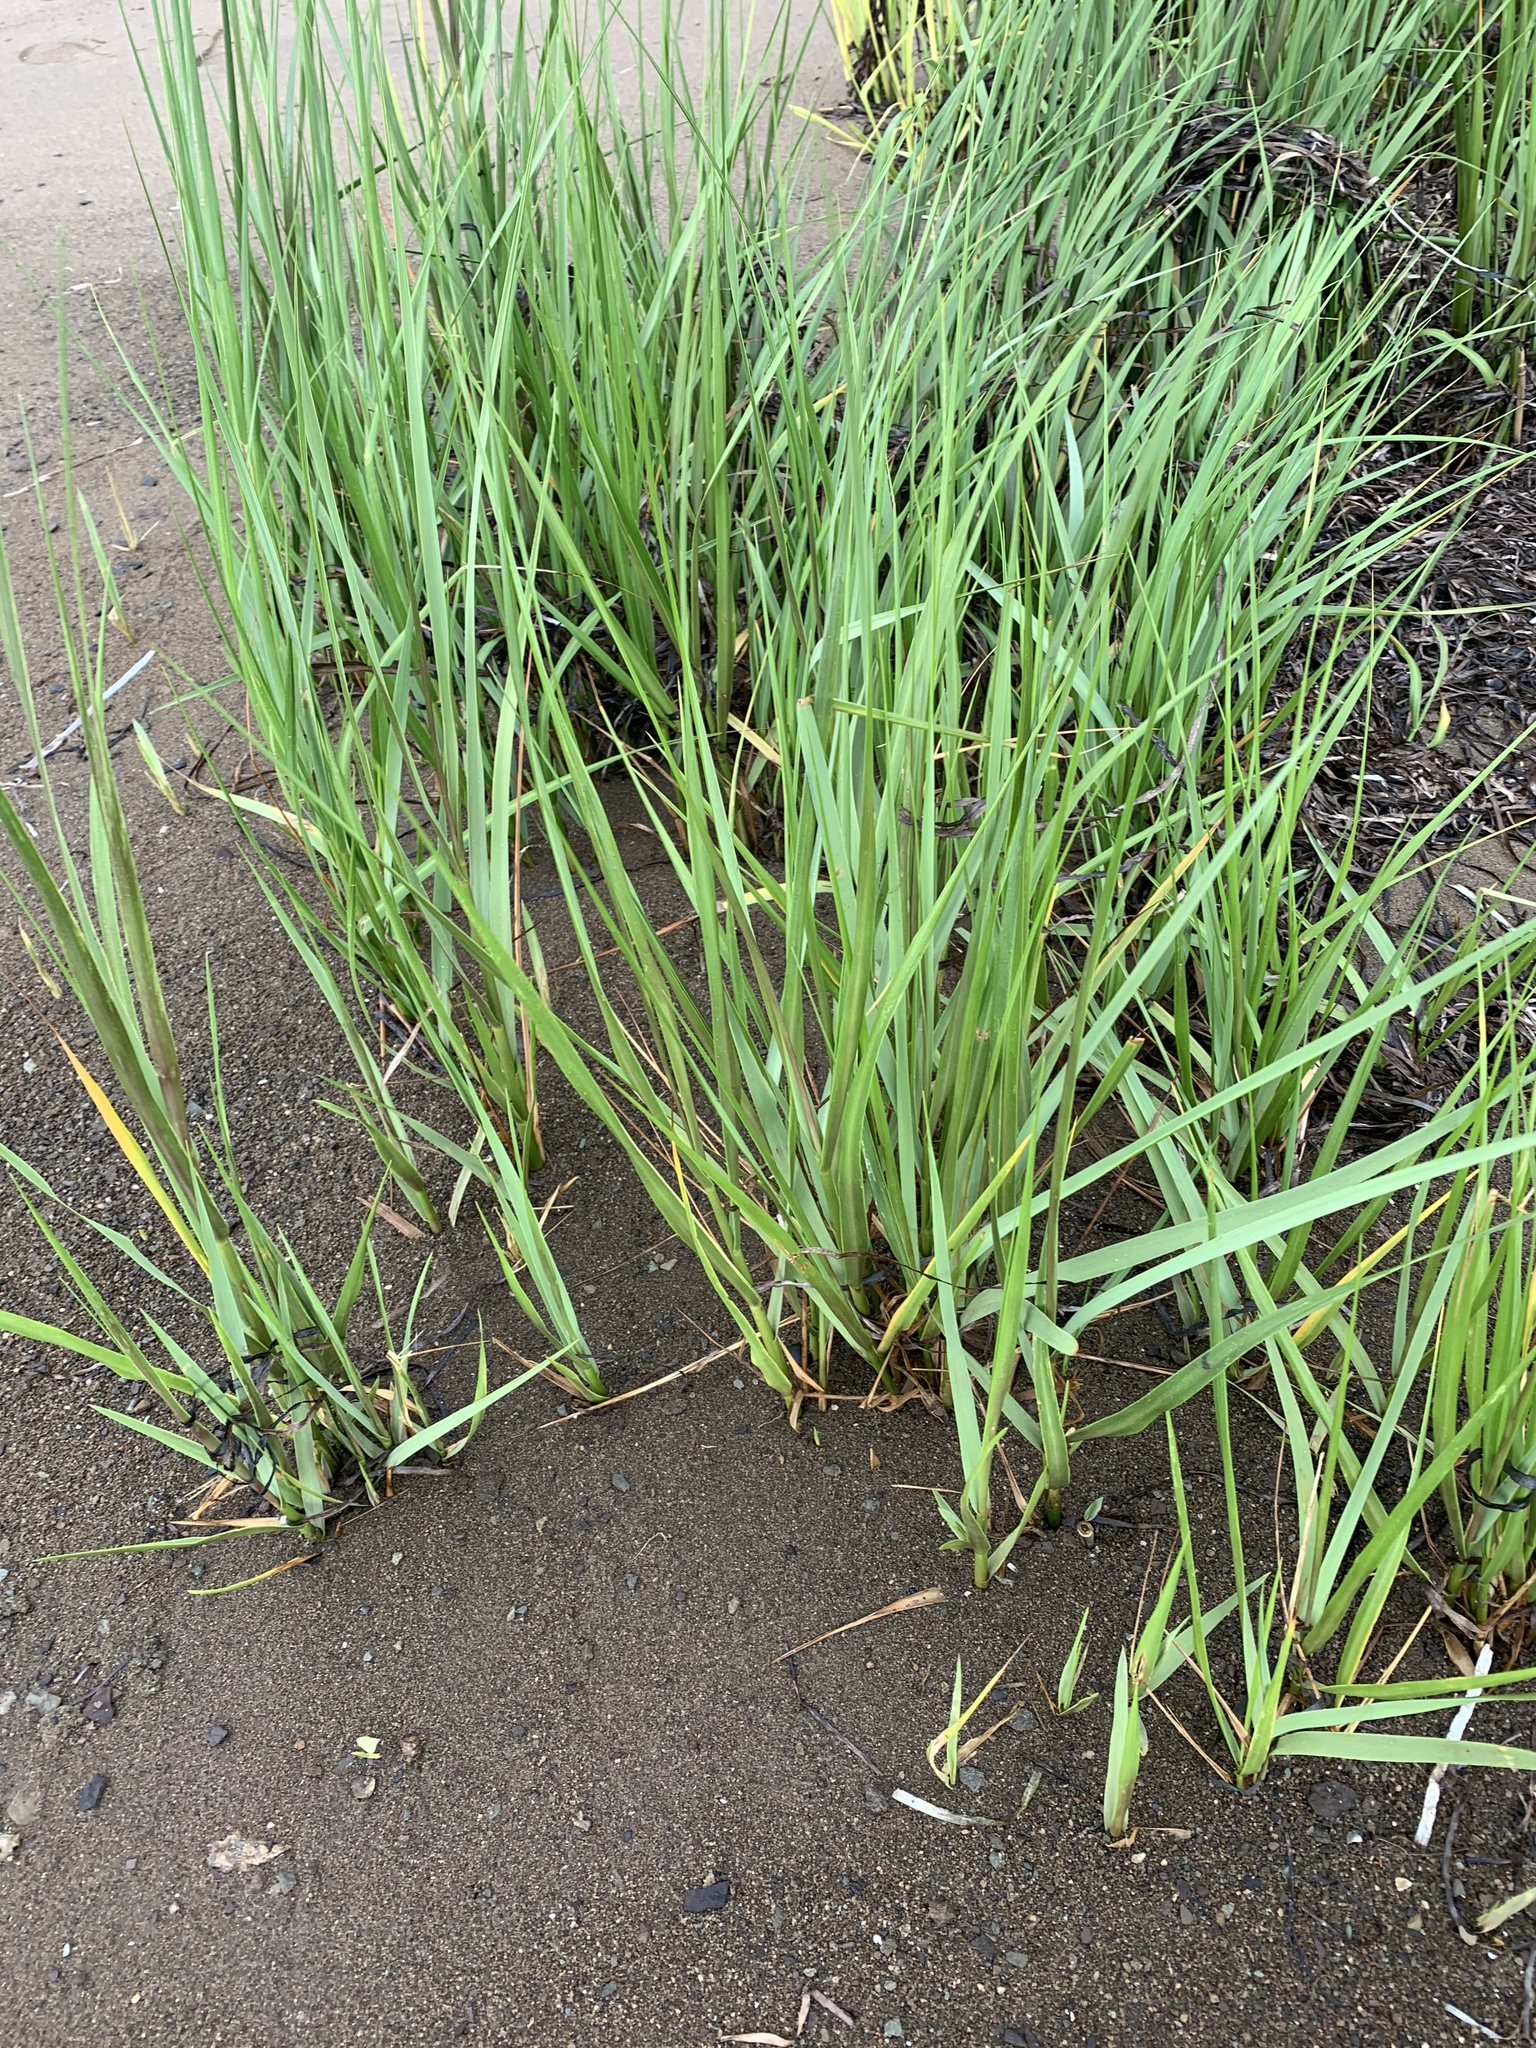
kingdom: Plantae
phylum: Tracheophyta
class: Liliopsida
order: Poales
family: Poaceae
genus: Sporobolus
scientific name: Sporobolus alterniflorus
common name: Atlantic cordgrass
